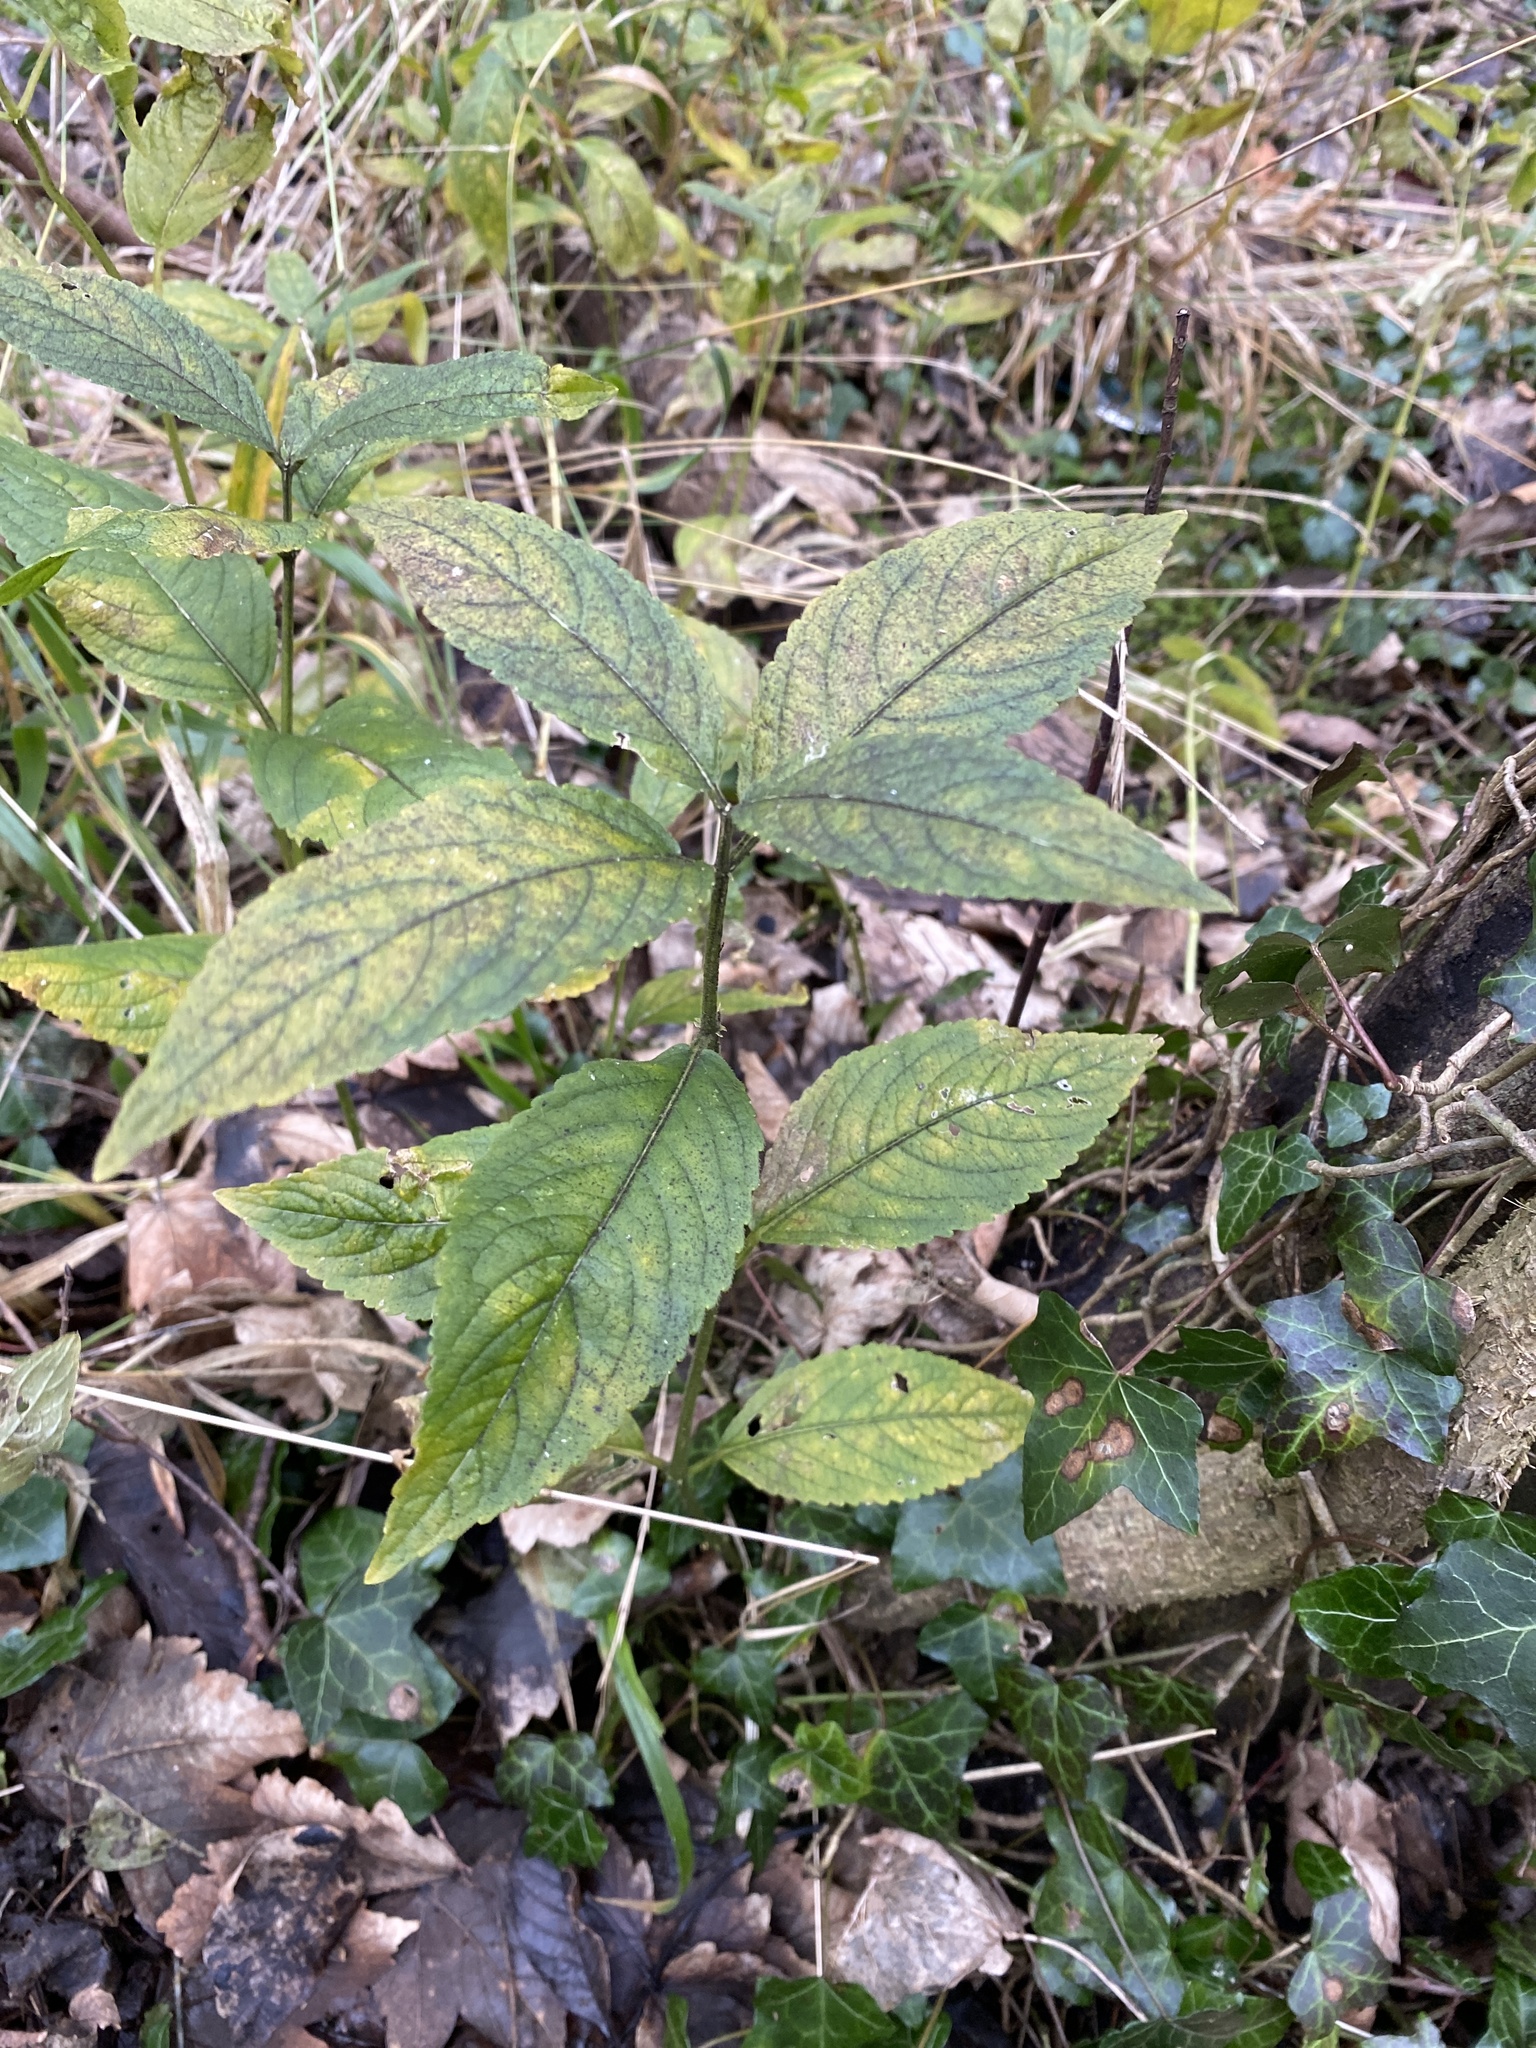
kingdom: Plantae
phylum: Tracheophyta
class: Magnoliopsida
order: Malpighiales
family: Euphorbiaceae
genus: Mercurialis
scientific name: Mercurialis perennis
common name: Dog mercury
